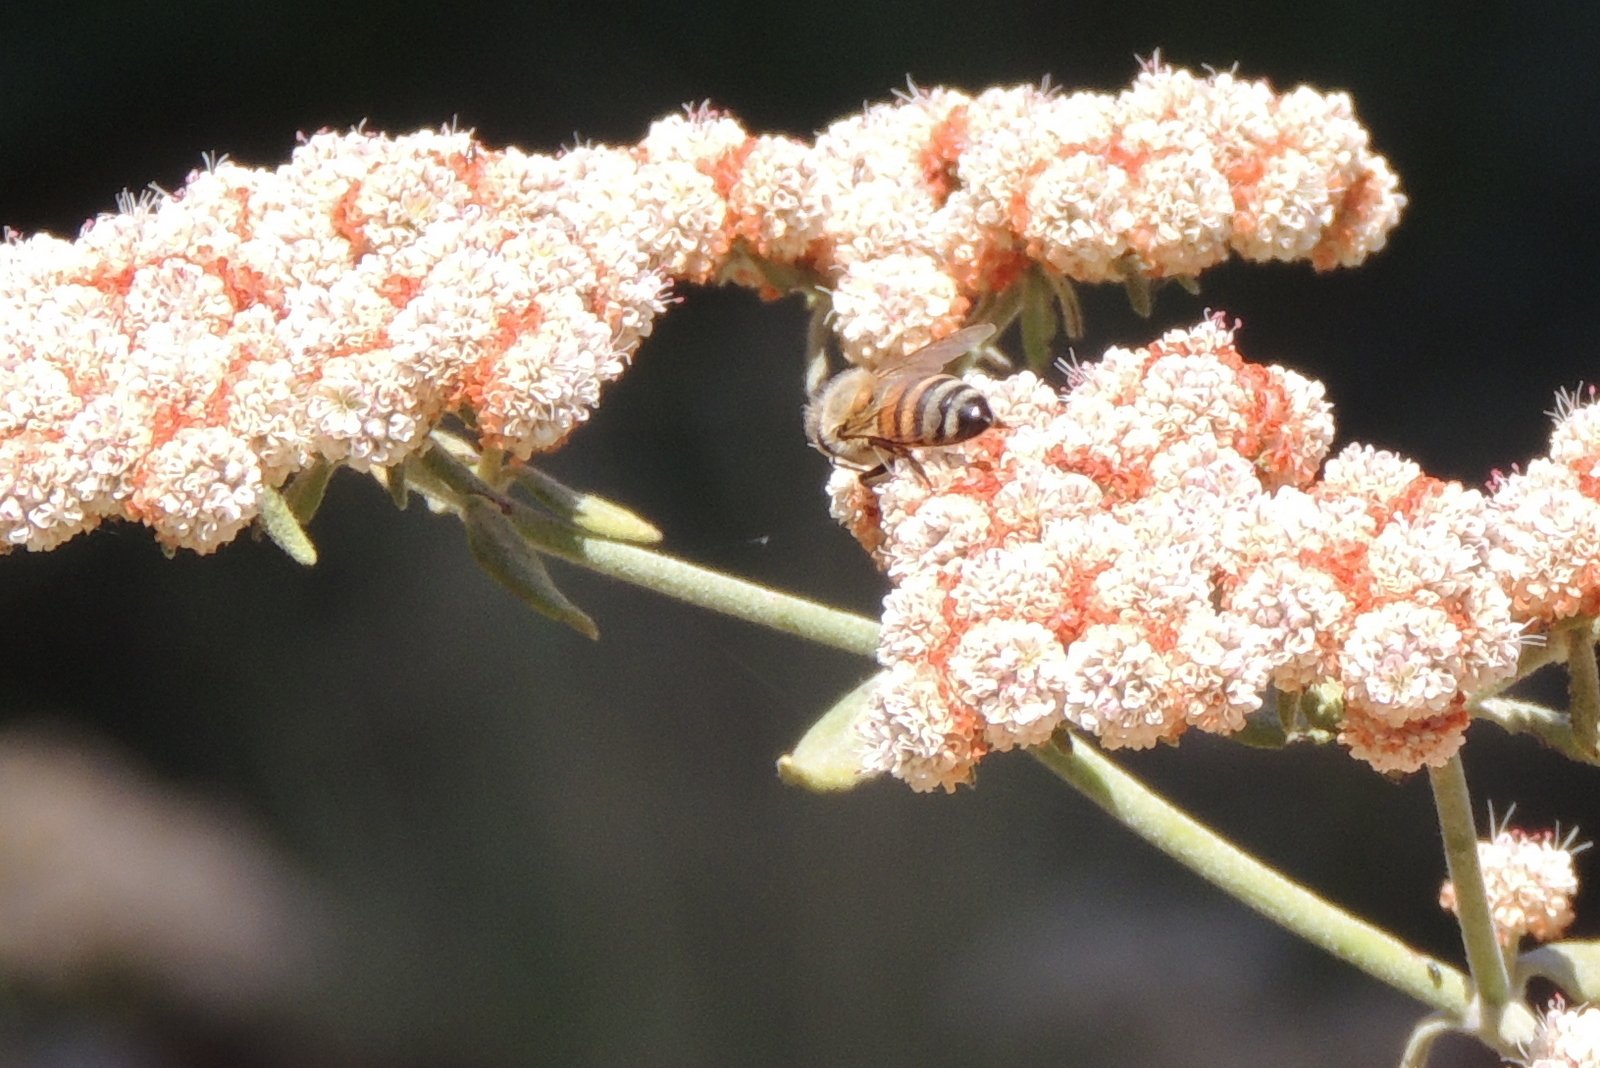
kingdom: Animalia
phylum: Arthropoda
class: Insecta
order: Hymenoptera
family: Apidae
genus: Apis
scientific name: Apis mellifera
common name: Honey bee
